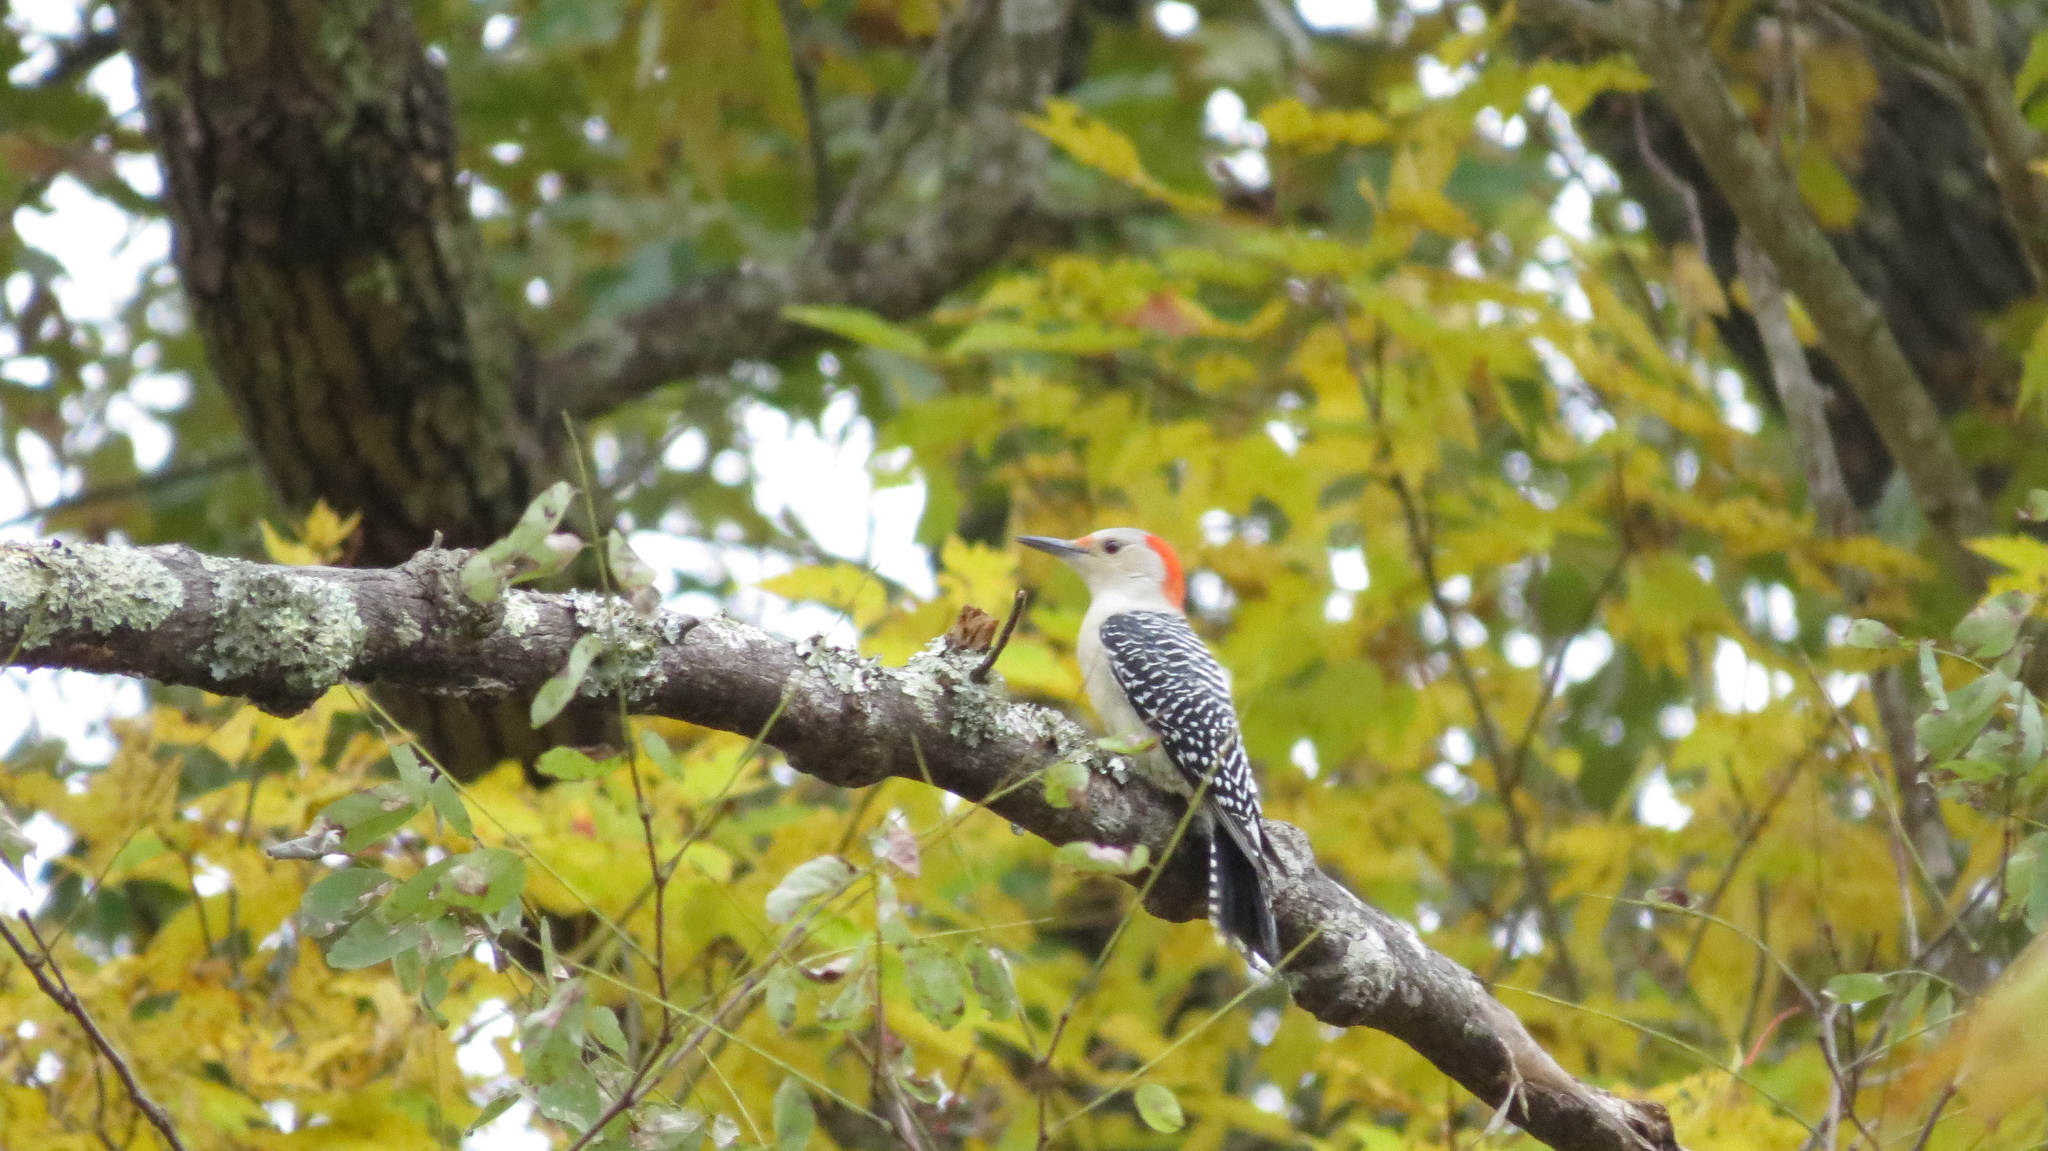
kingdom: Animalia
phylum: Chordata
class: Aves
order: Piciformes
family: Picidae
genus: Melanerpes
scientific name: Melanerpes carolinus
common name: Red-bellied woodpecker
